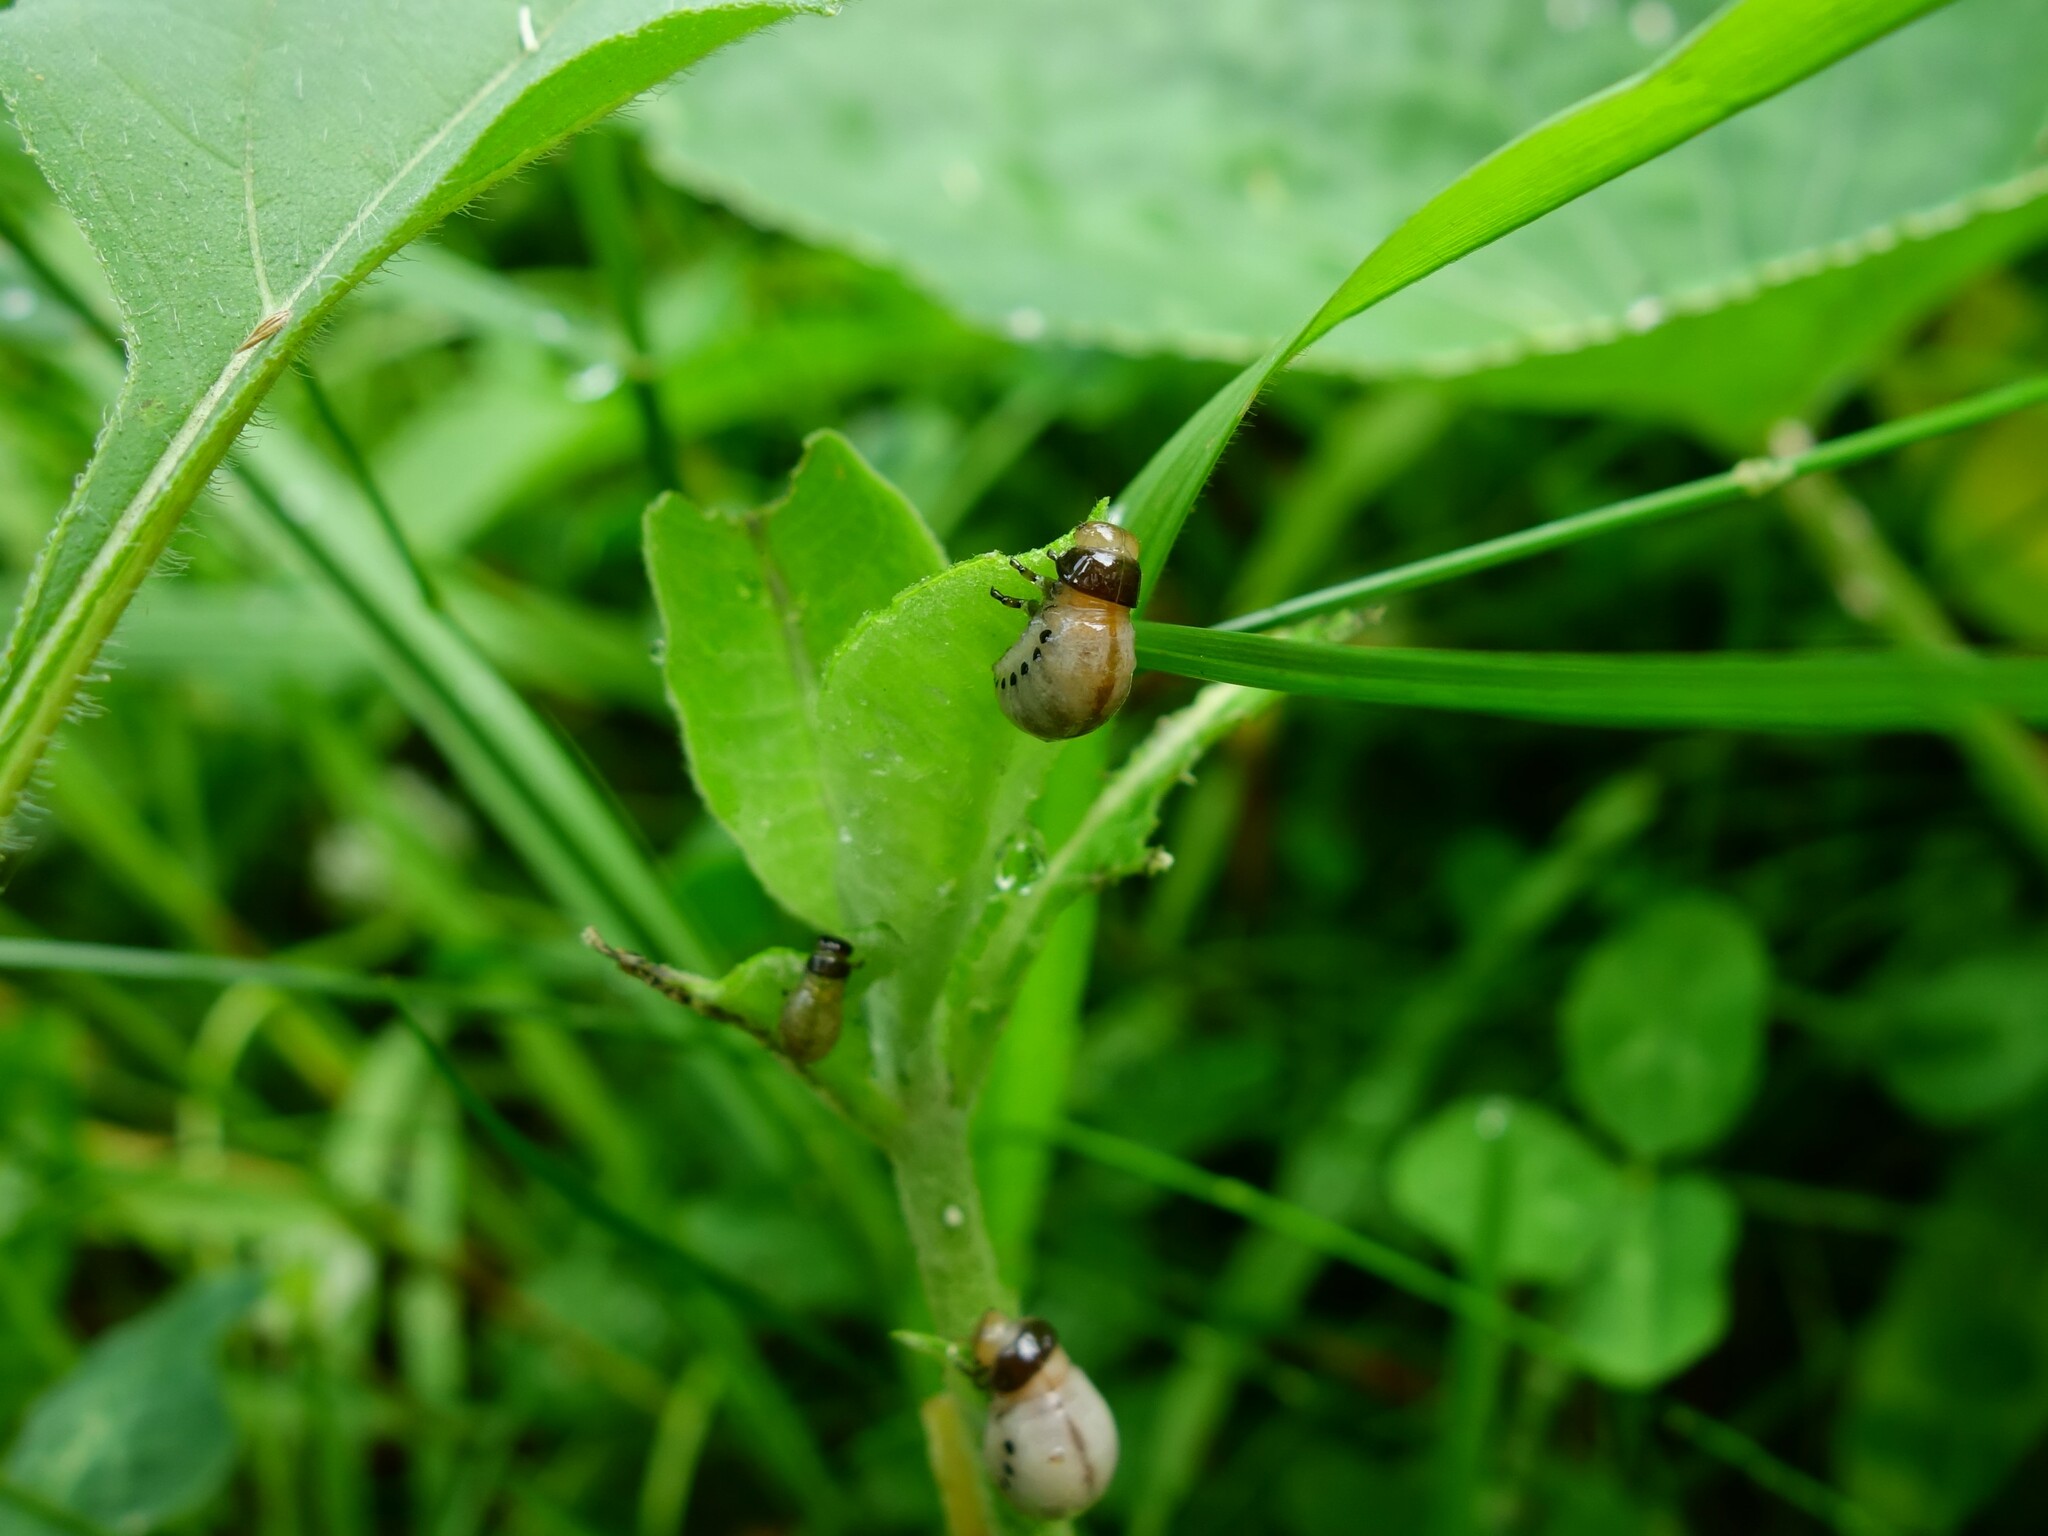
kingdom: Animalia
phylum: Arthropoda
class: Insecta
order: Coleoptera
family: Chrysomelidae
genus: Labidomera
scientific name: Labidomera clivicollis
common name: Swamp milkweed leaf beetle
